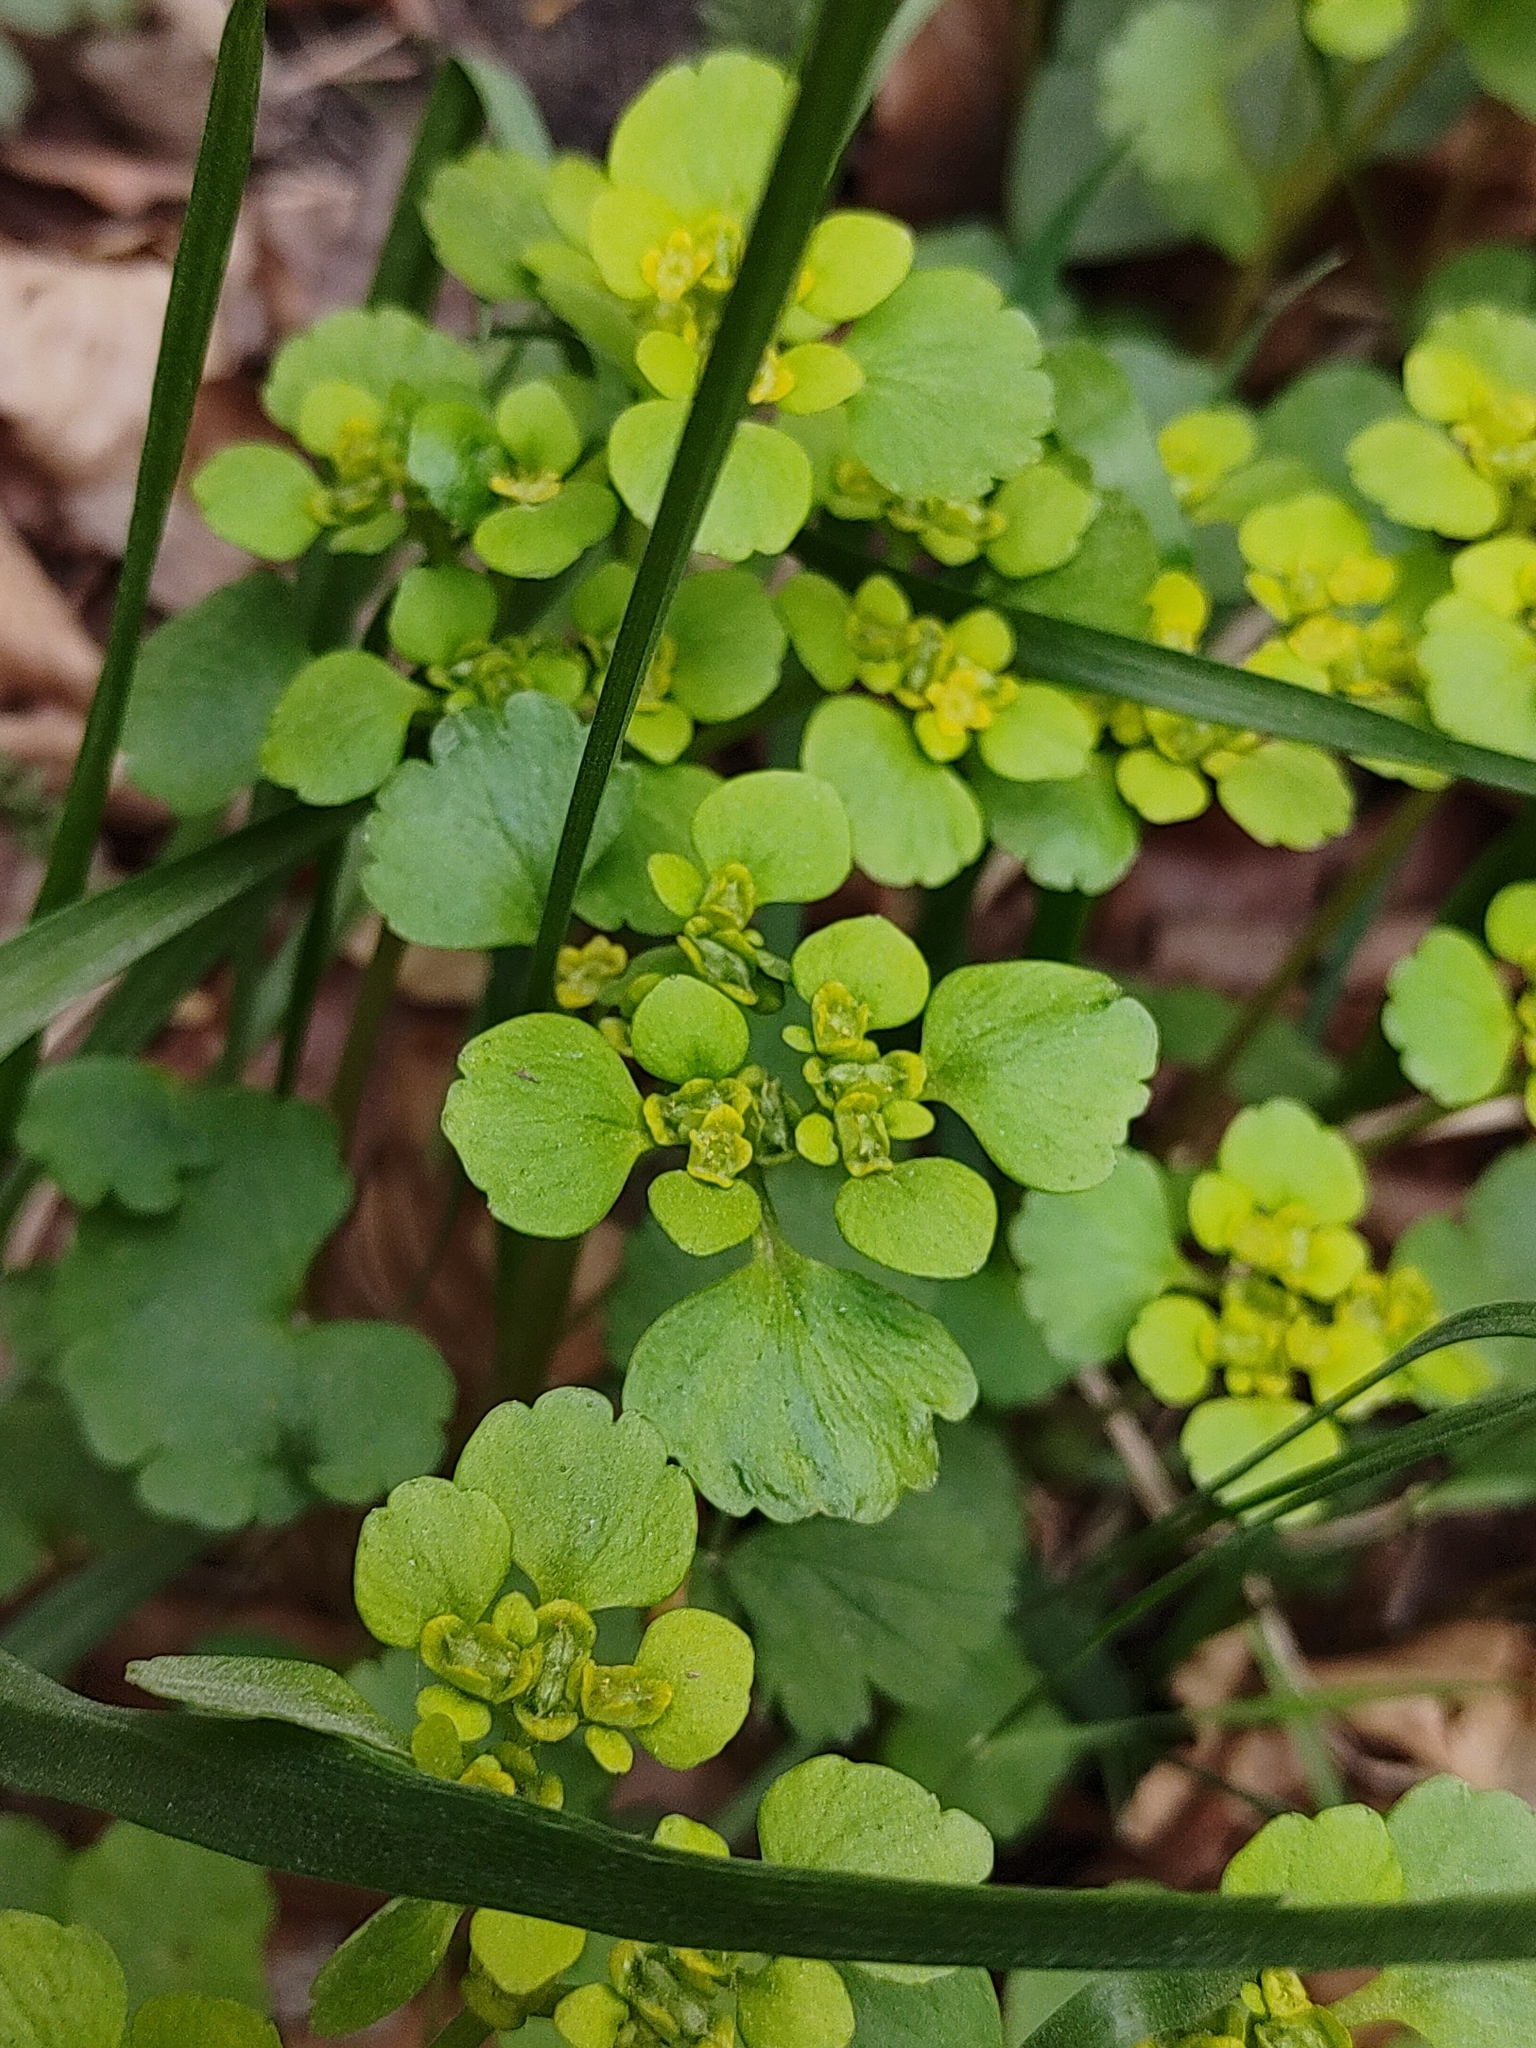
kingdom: Plantae
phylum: Tracheophyta
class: Magnoliopsida
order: Saxifragales
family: Saxifragaceae
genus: Chrysosplenium
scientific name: Chrysosplenium alternifolium
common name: Alternate-leaved golden-saxifrage
